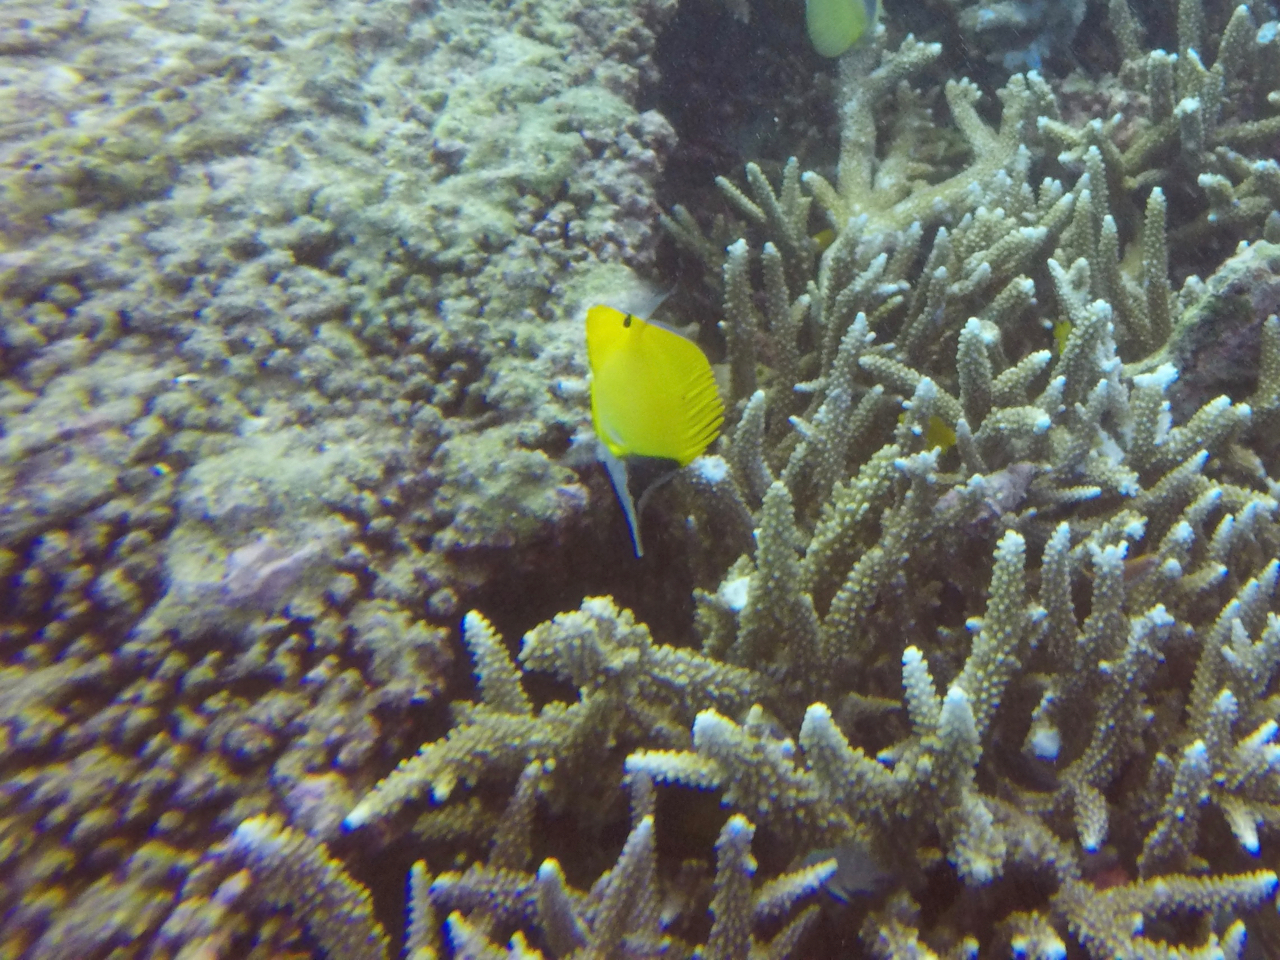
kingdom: Animalia
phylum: Chordata
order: Perciformes
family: Chaetodontidae
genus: Forcipiger
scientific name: Forcipiger longirostris
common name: Longnose butterflyfish
